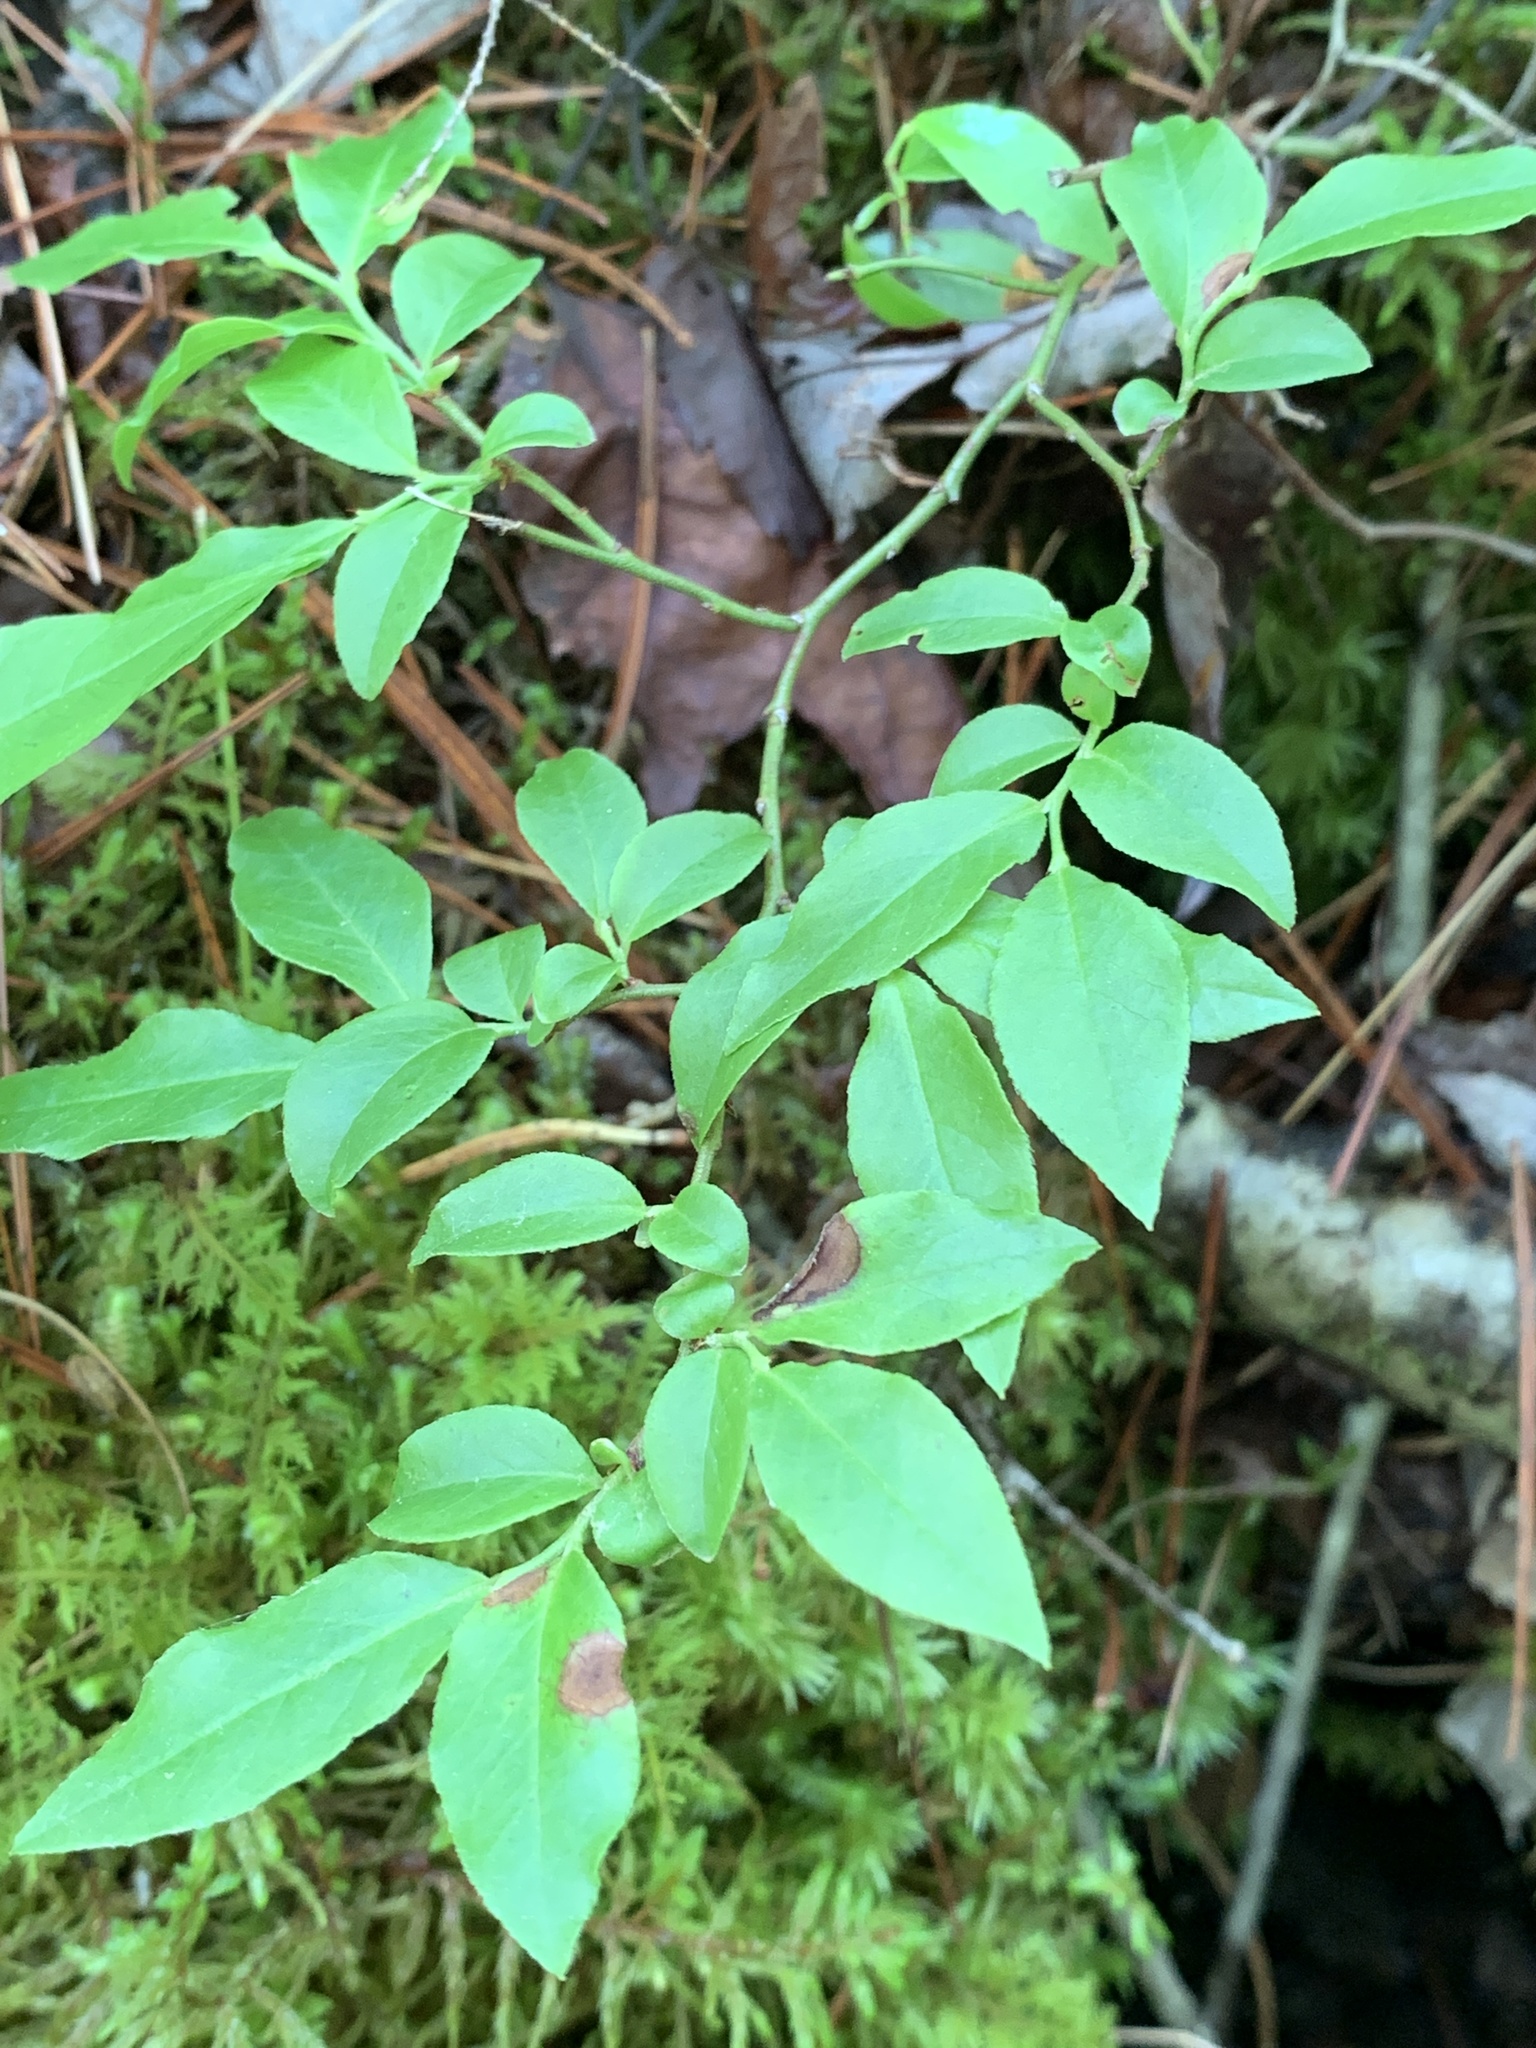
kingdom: Plantae
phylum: Tracheophyta
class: Magnoliopsida
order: Ericales
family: Ericaceae
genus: Vaccinium
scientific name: Vaccinium angustifolium
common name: Early lowbush blueberry
